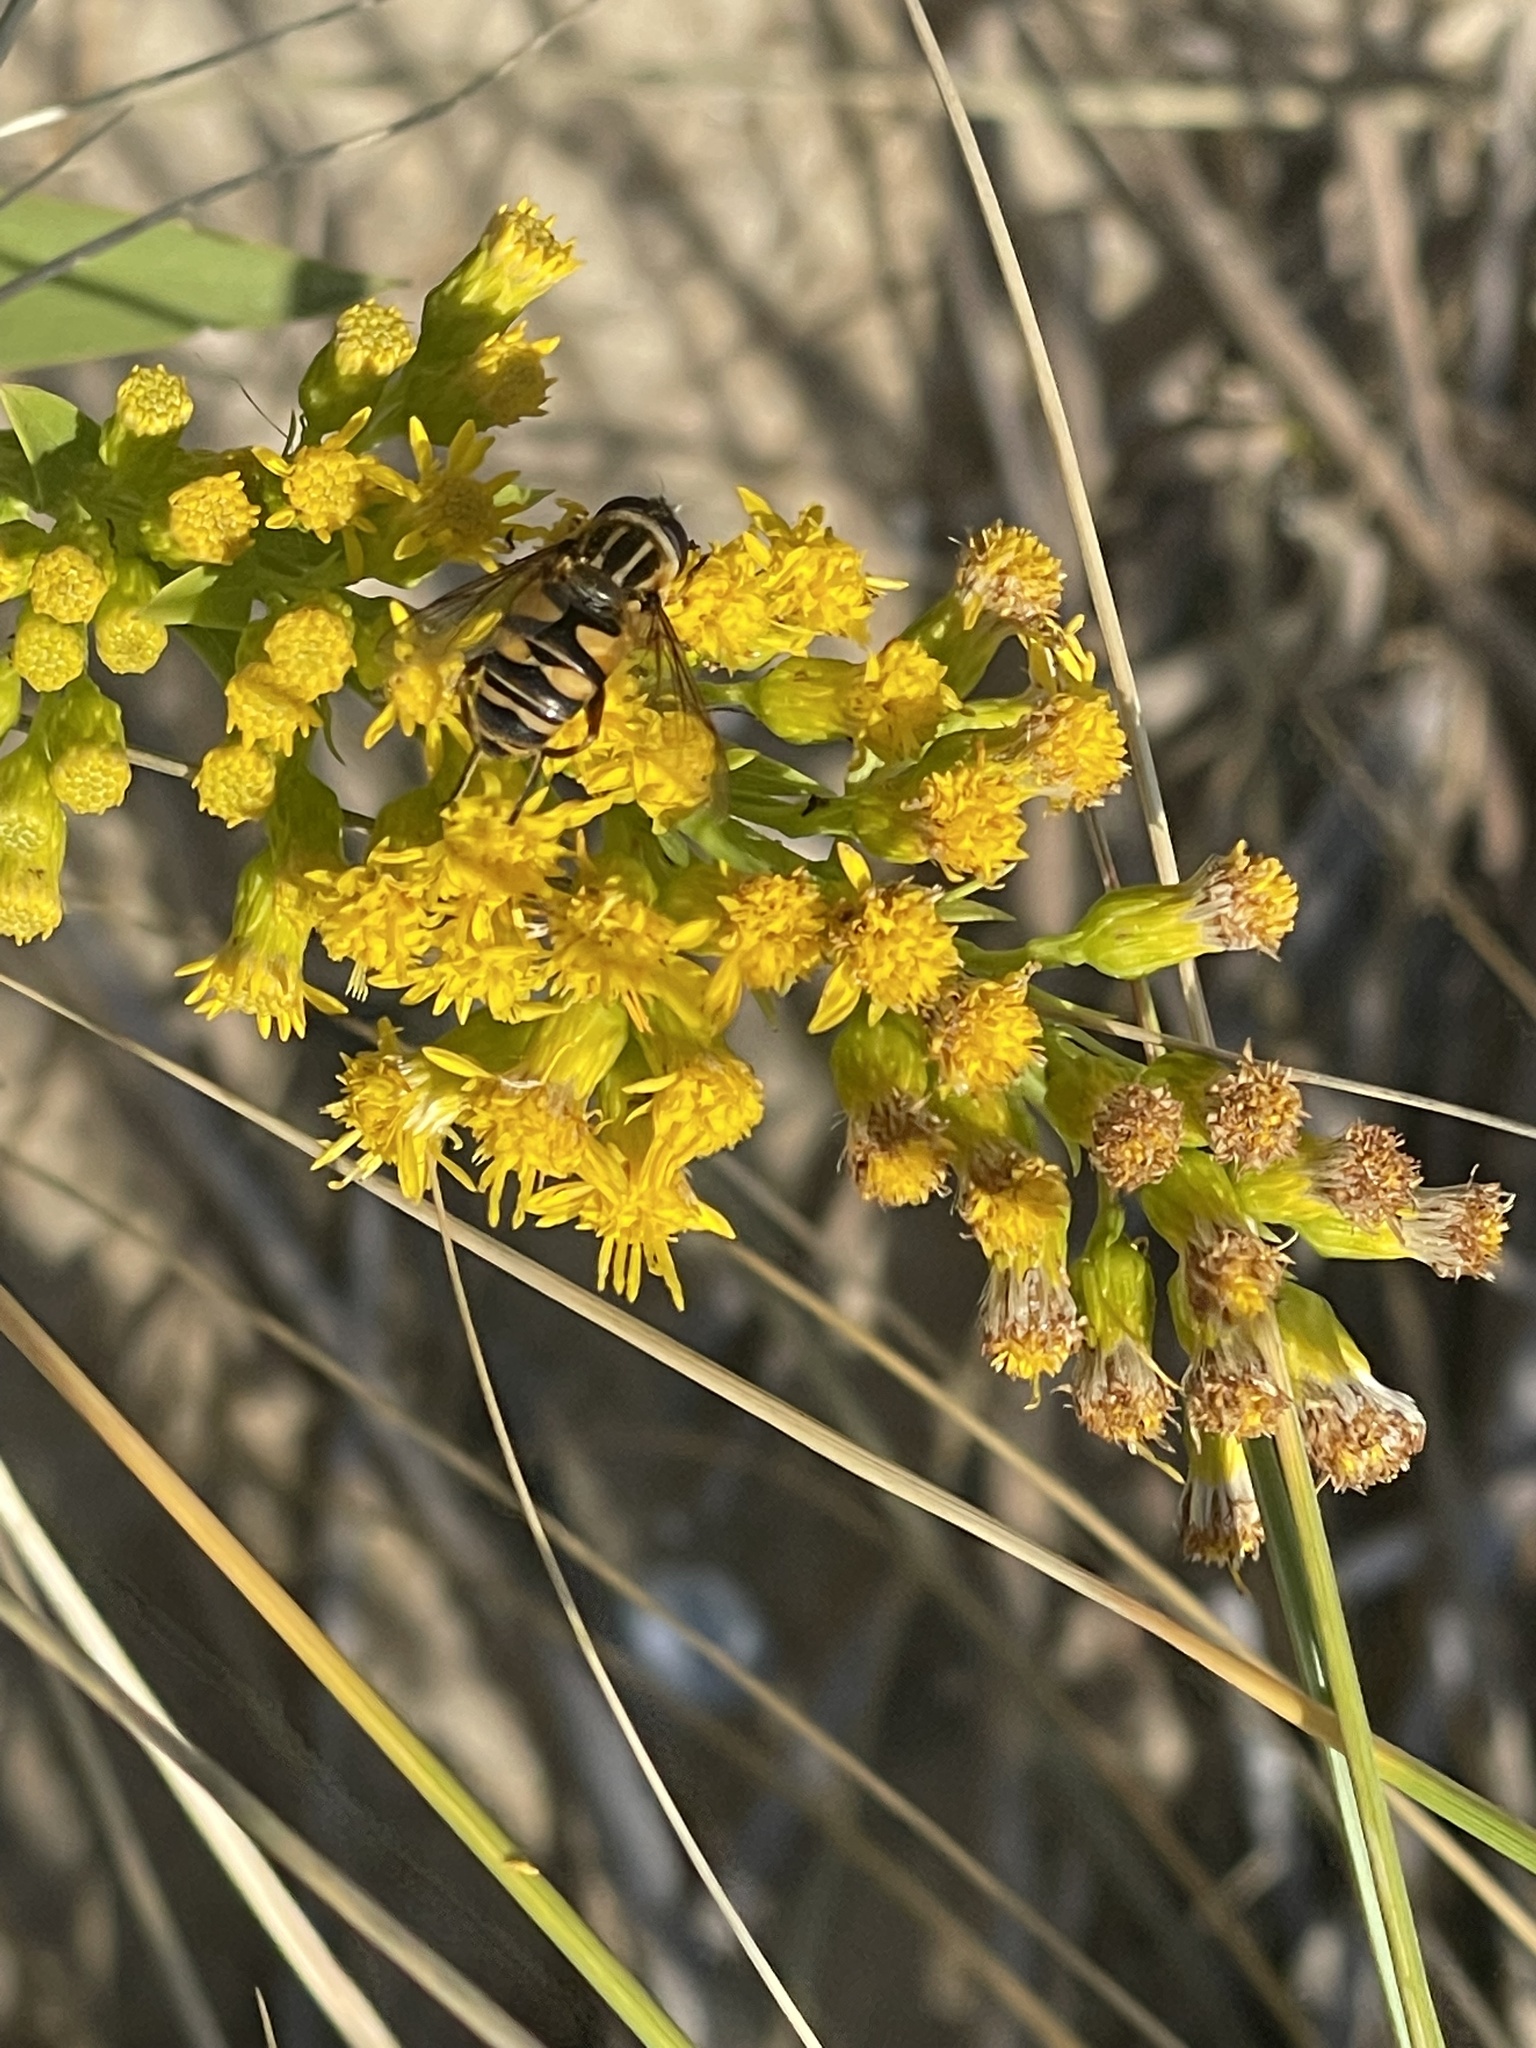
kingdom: Animalia
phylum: Arthropoda
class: Insecta
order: Diptera
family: Syrphidae
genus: Helophilus
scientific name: Helophilus fasciatus
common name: Narrow-headed marsh fly
